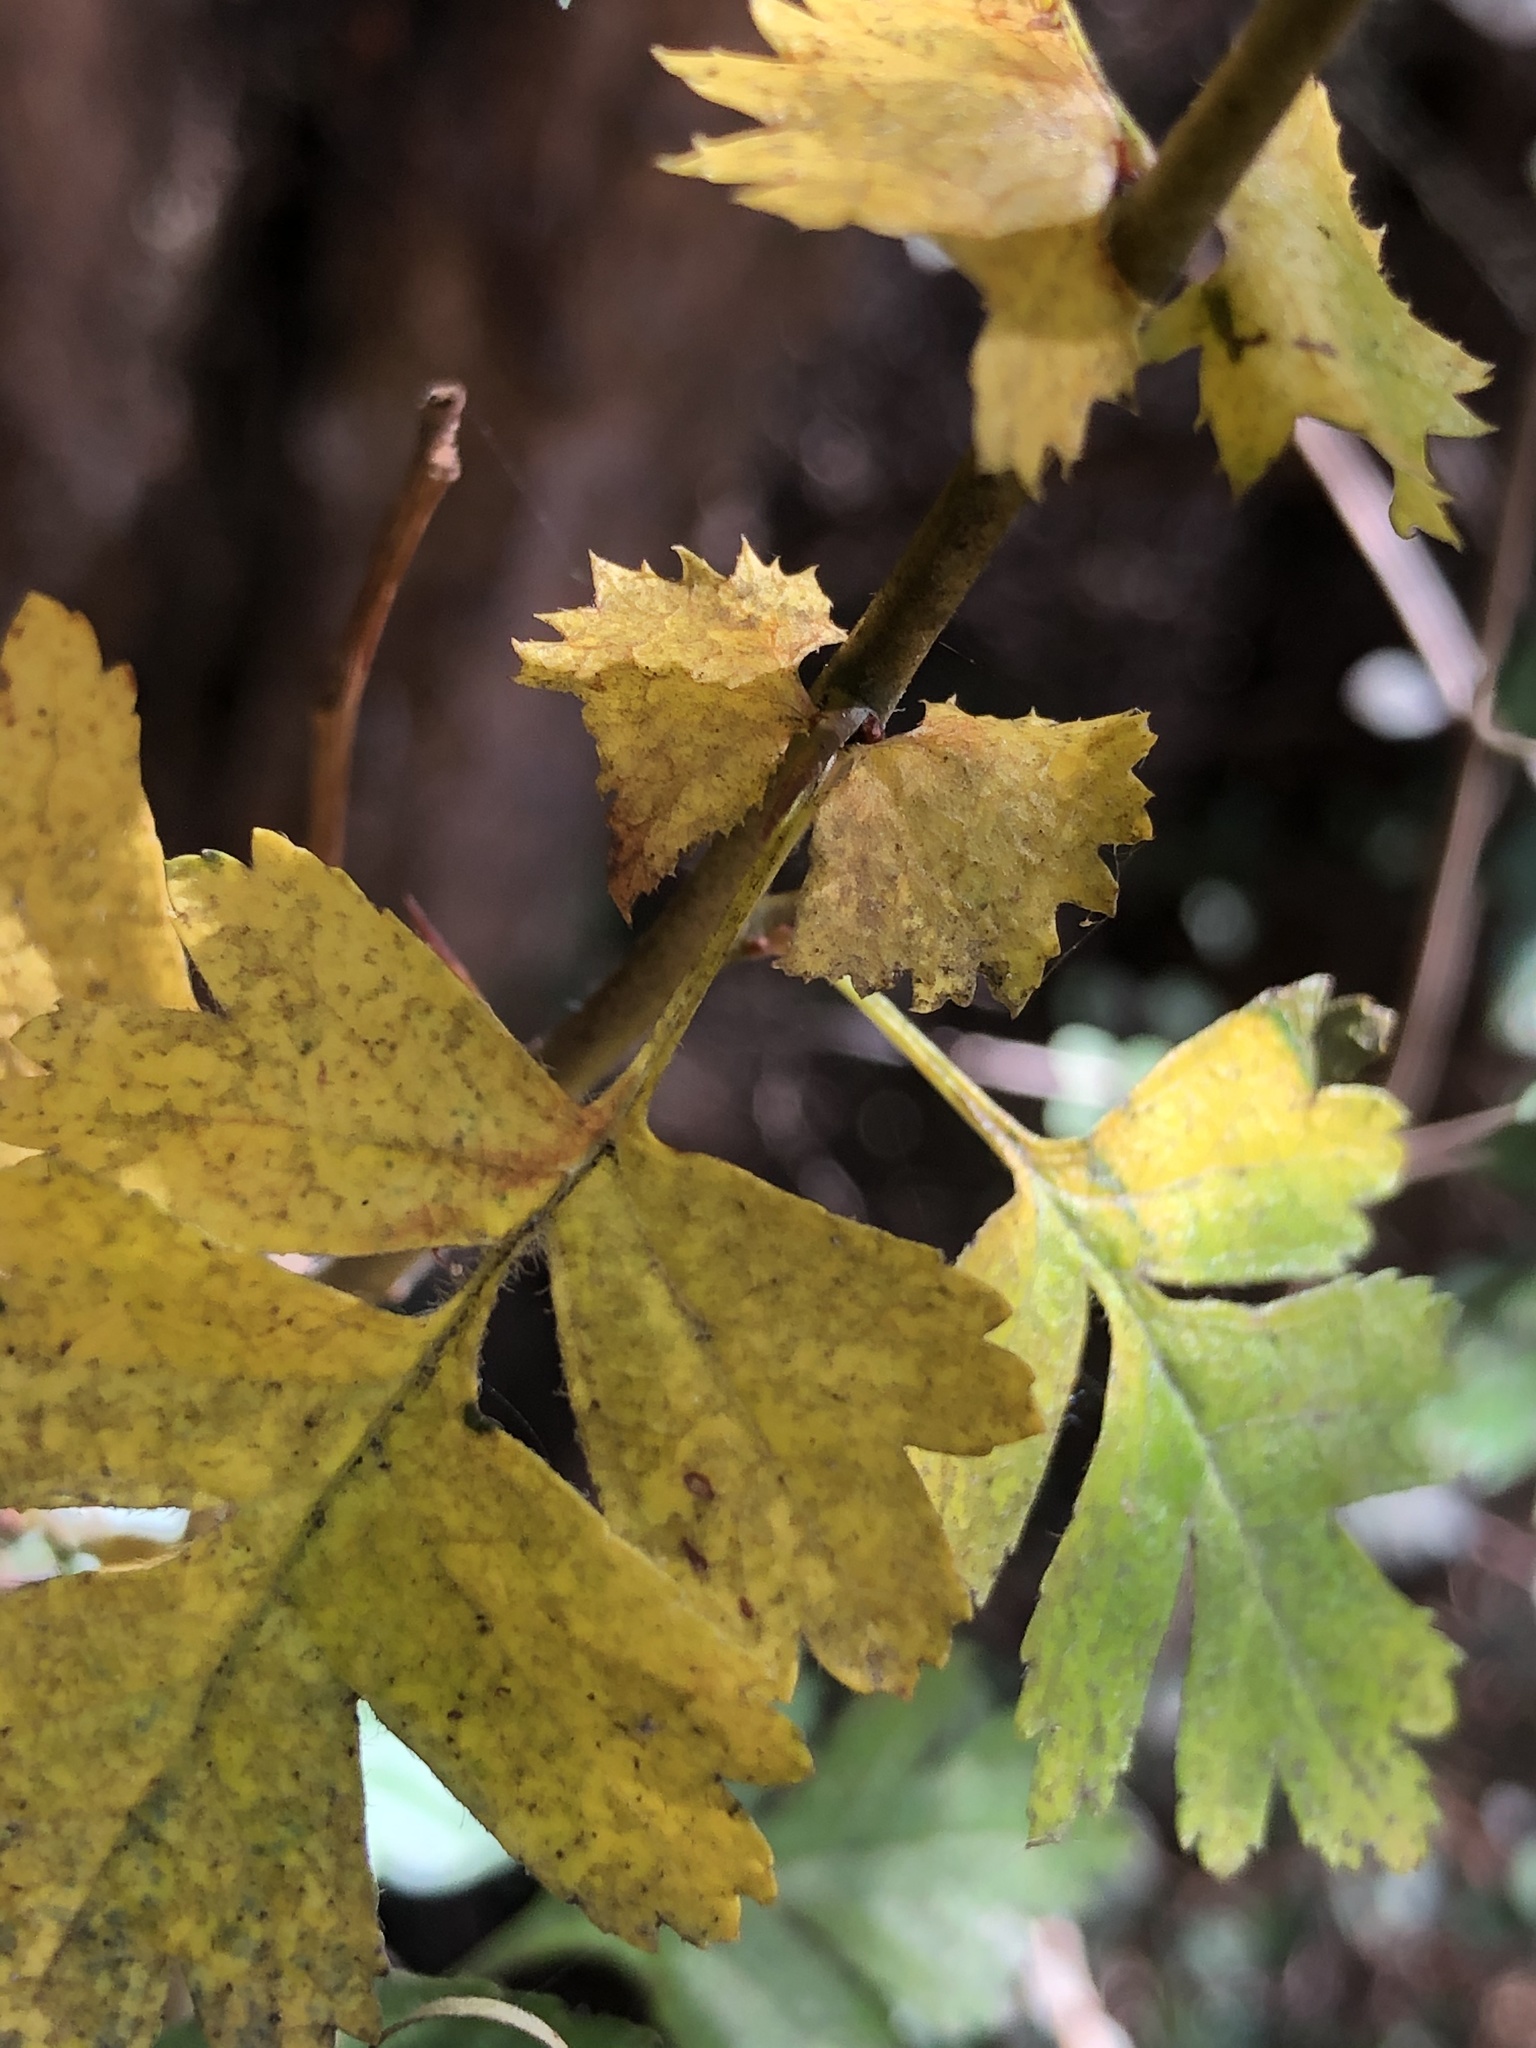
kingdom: Plantae
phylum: Tracheophyta
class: Magnoliopsida
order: Rosales
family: Rosaceae
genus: Crataegus
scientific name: Crataegus monogyna
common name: Hawthorn
